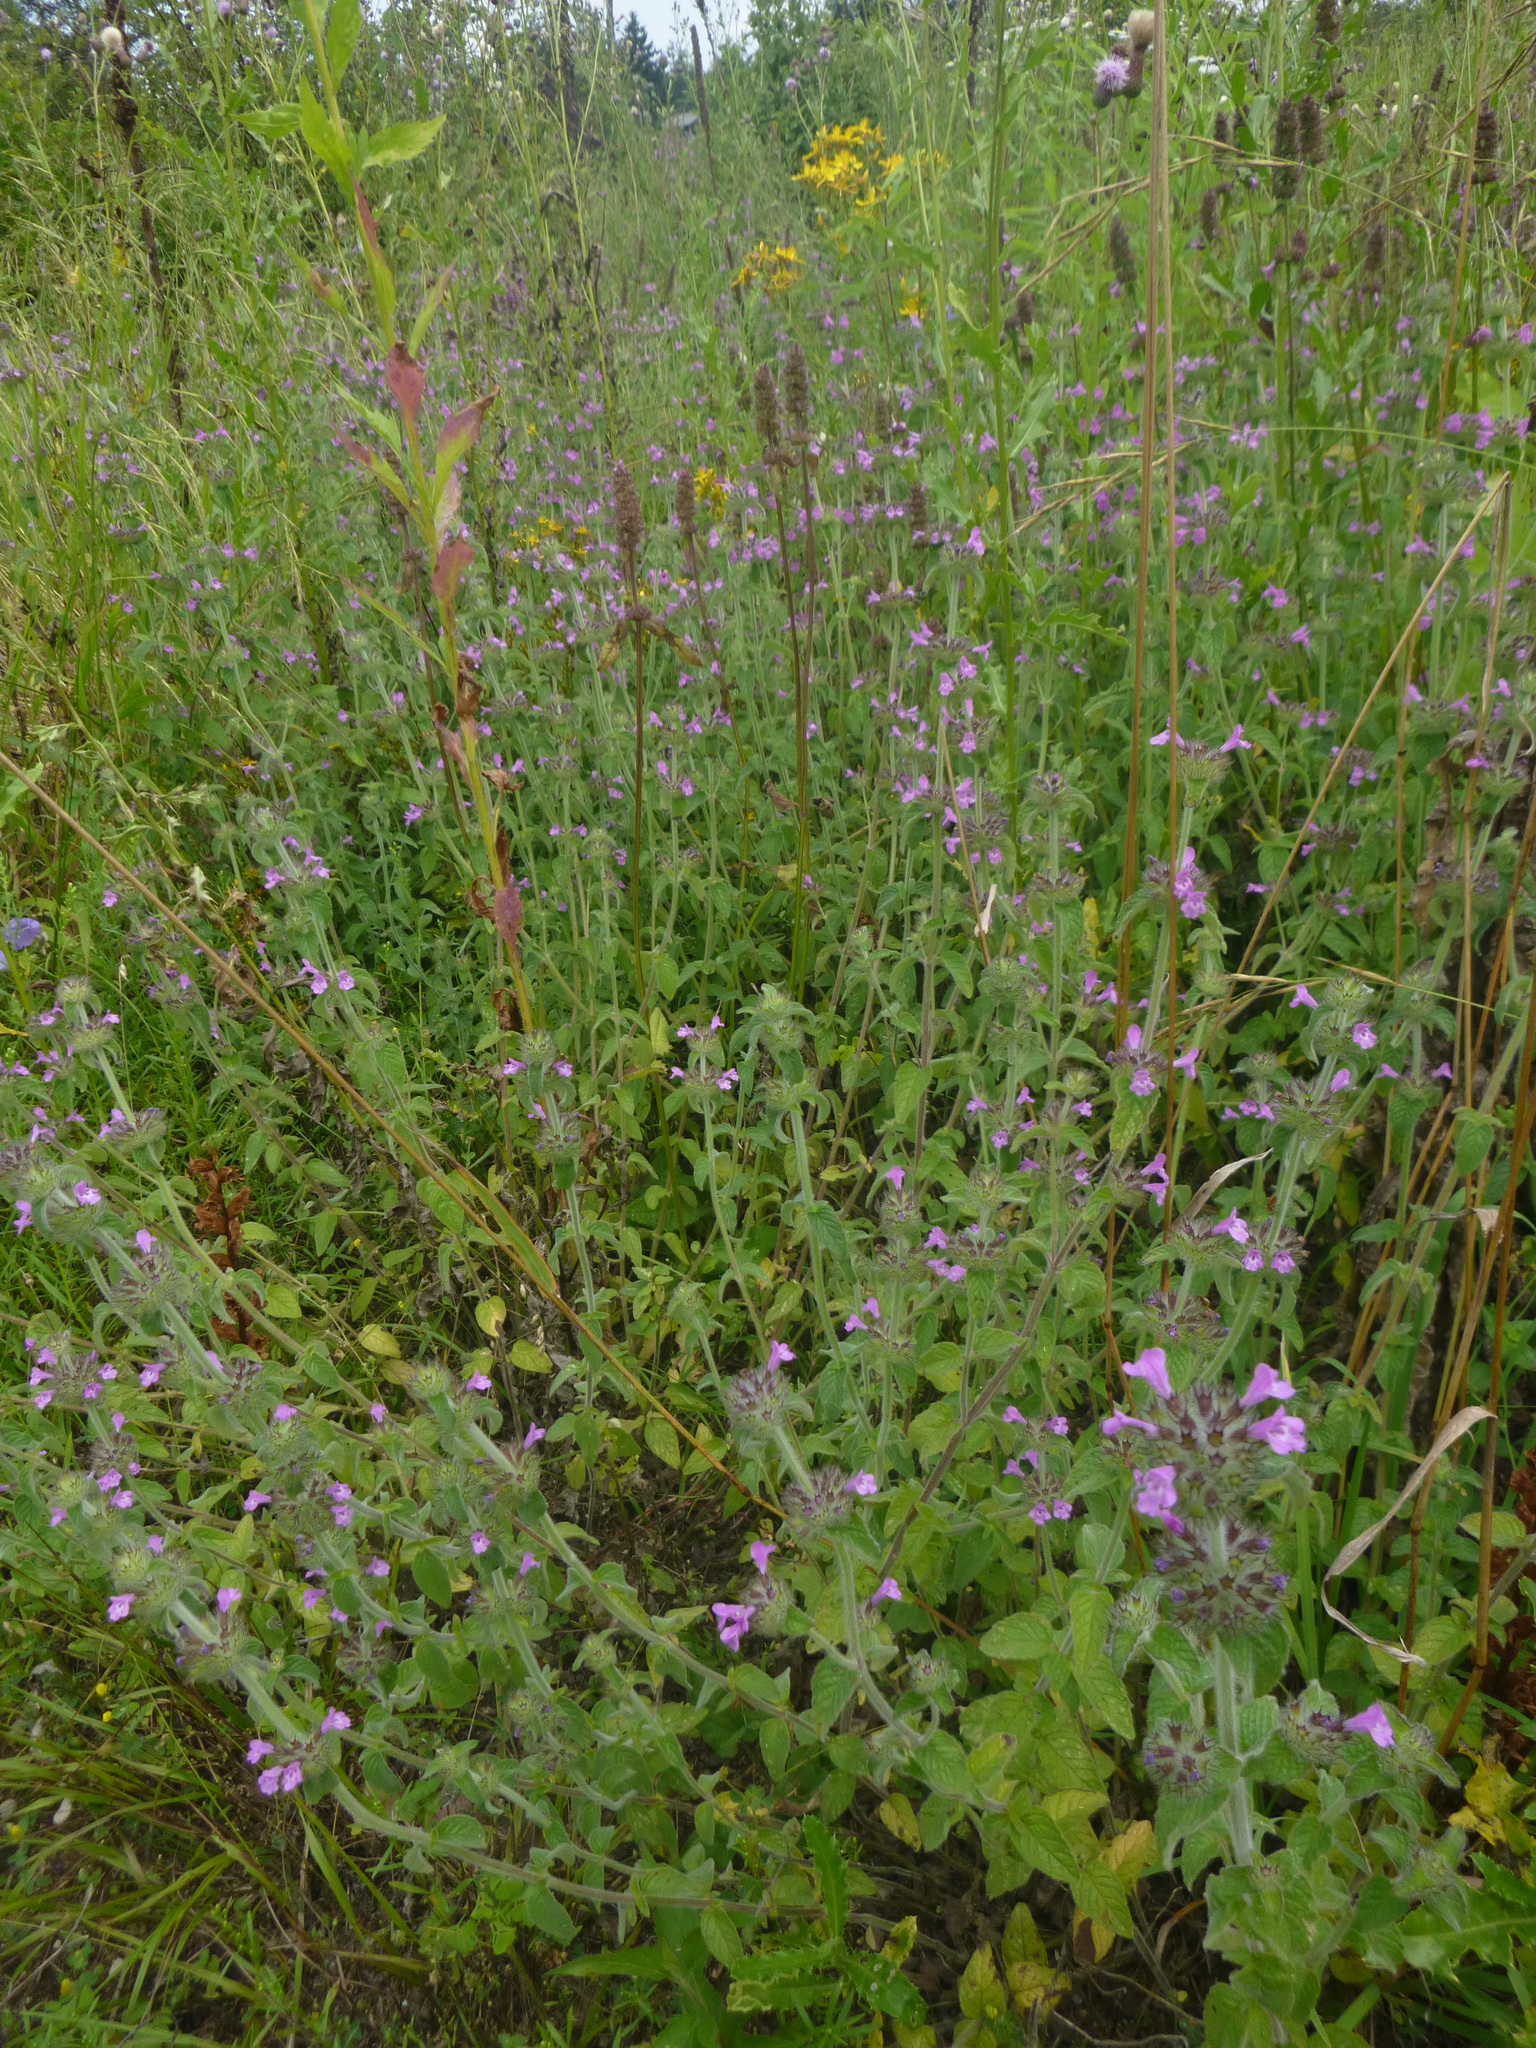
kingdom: Plantae
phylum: Tracheophyta
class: Magnoliopsida
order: Lamiales
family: Lamiaceae
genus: Clinopodium
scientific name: Clinopodium vulgare
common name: Wild basil
